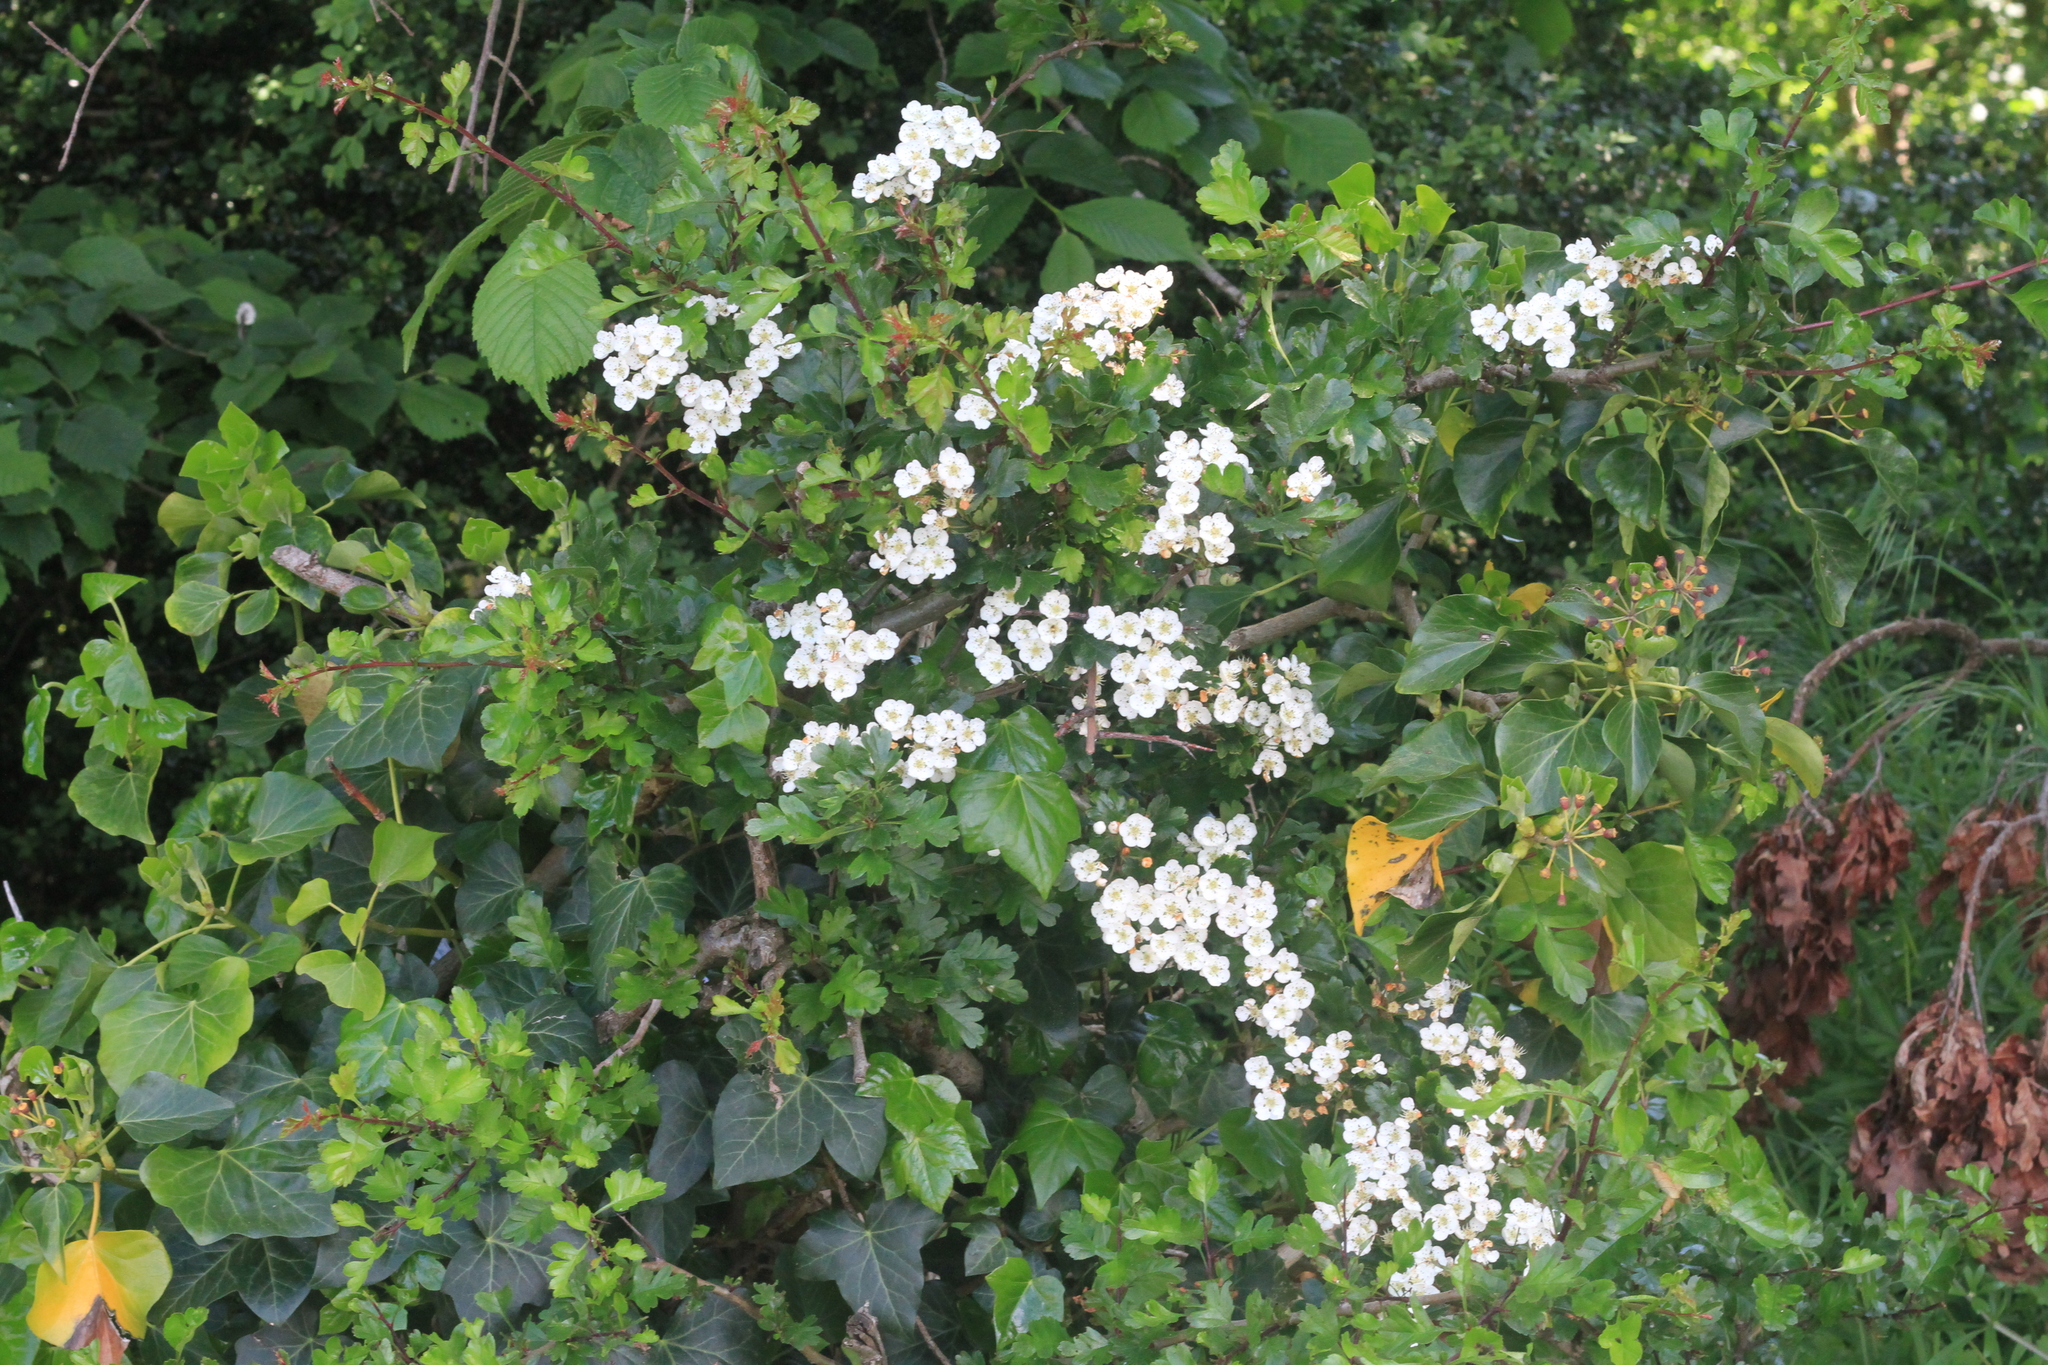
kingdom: Plantae
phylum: Tracheophyta
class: Magnoliopsida
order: Rosales
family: Rosaceae
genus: Crataegus
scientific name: Crataegus monogyna
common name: Hawthorn
